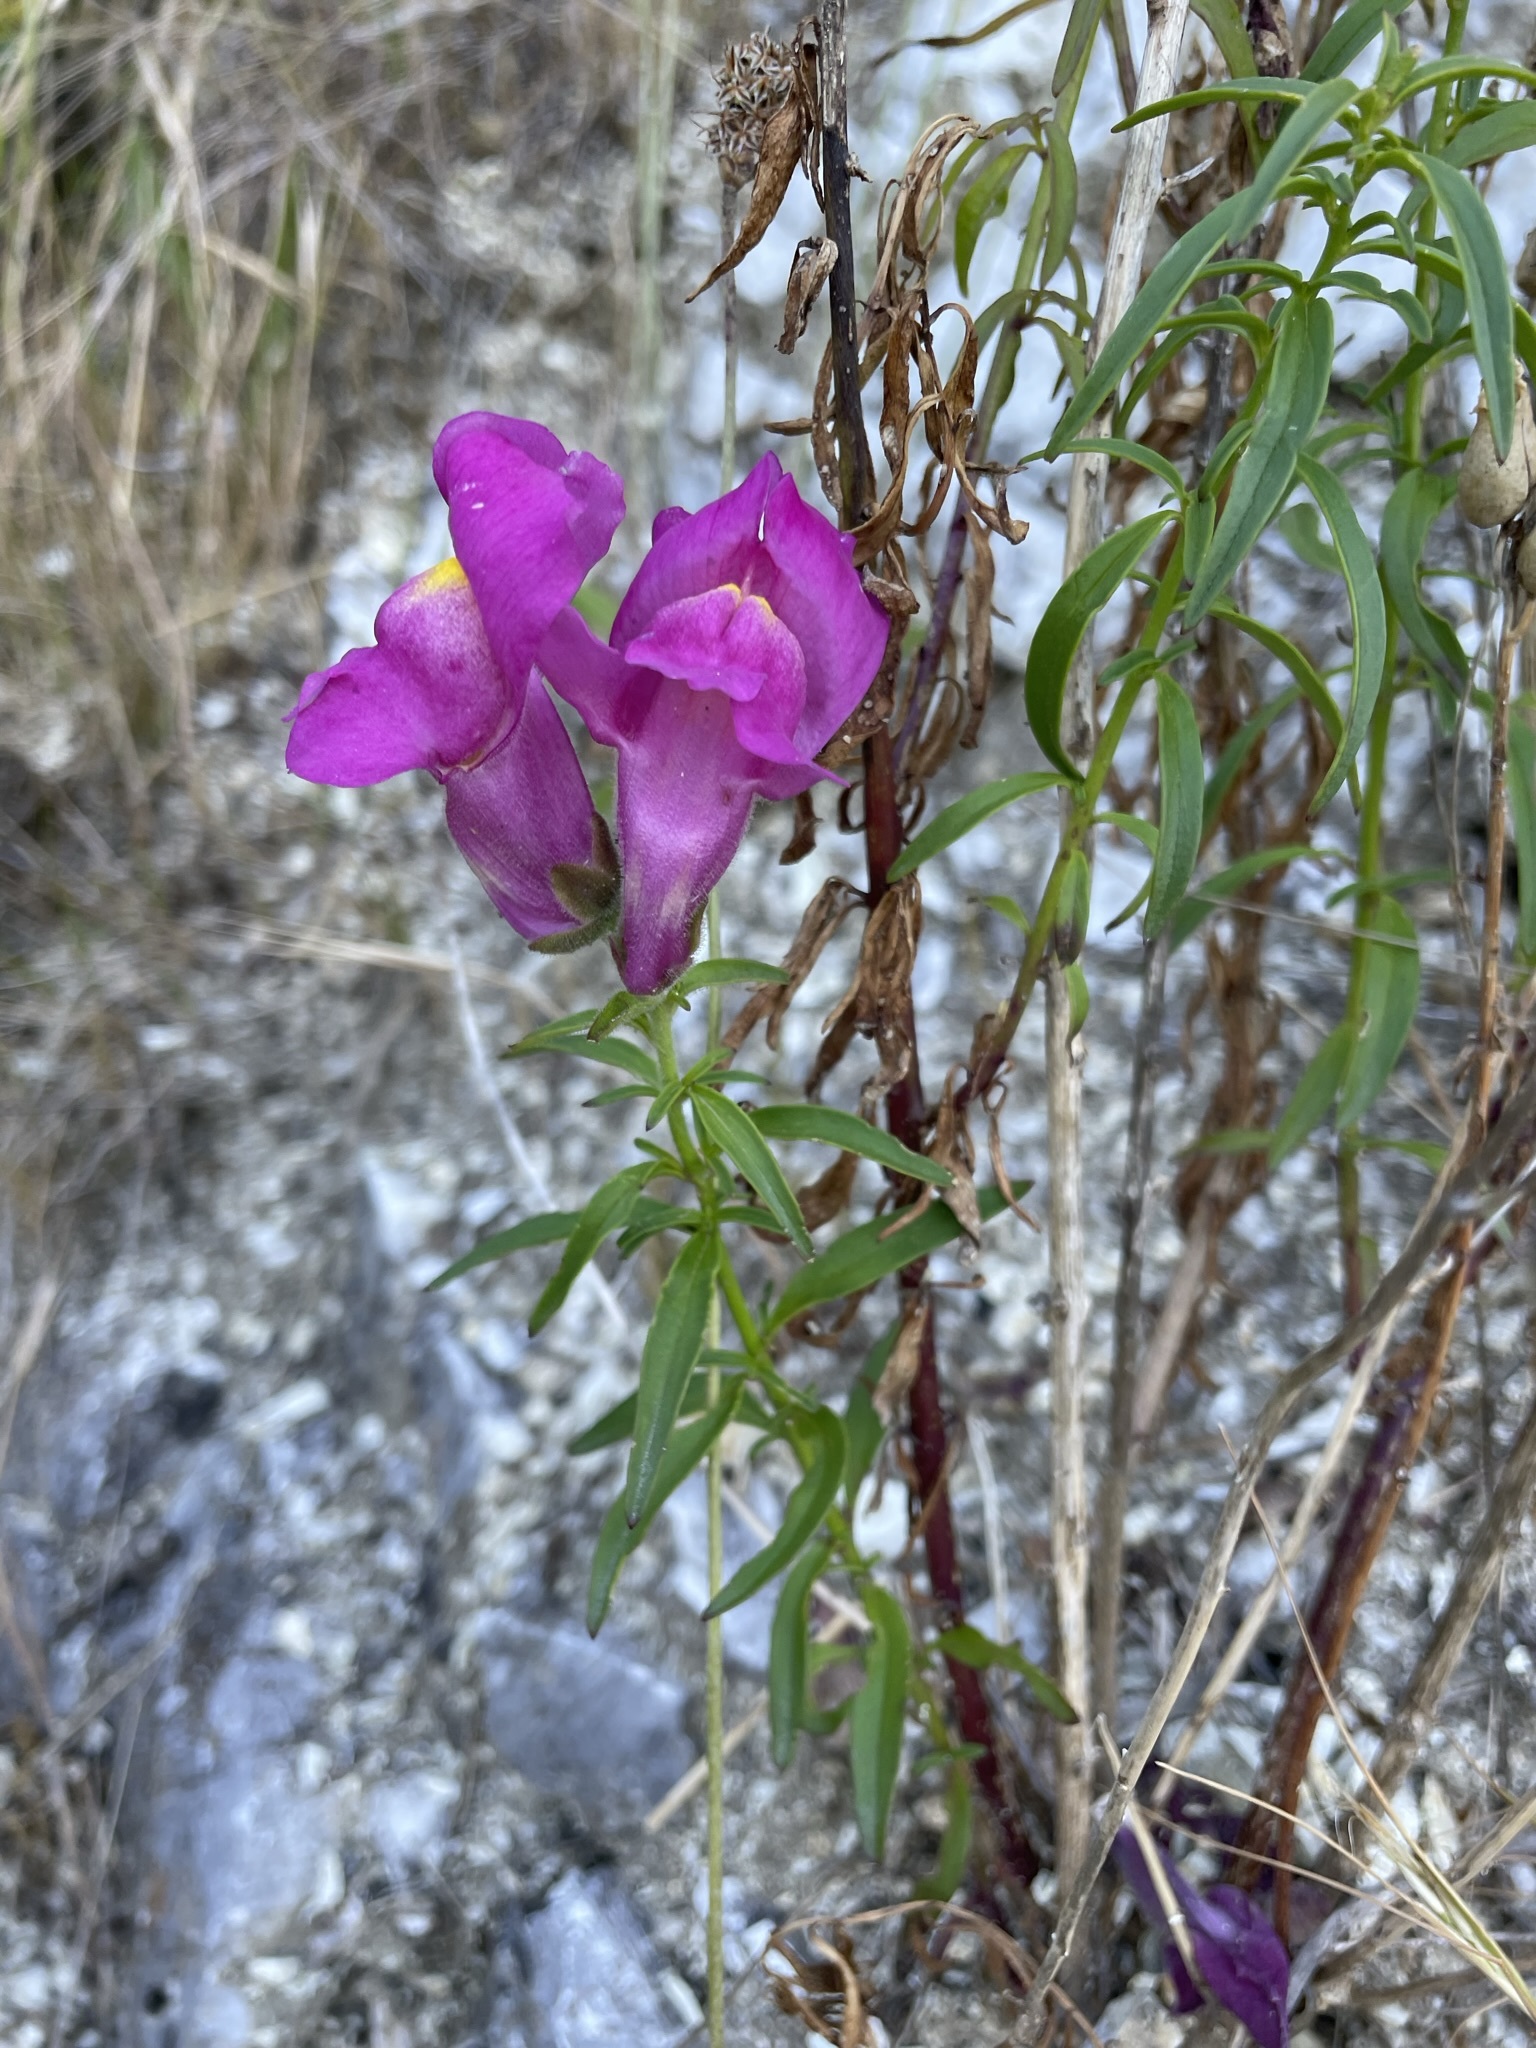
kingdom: Plantae
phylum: Tracheophyta
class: Magnoliopsida
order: Lamiales
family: Plantaginaceae
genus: Antirrhinum
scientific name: Antirrhinum majus
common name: Snapdragon
